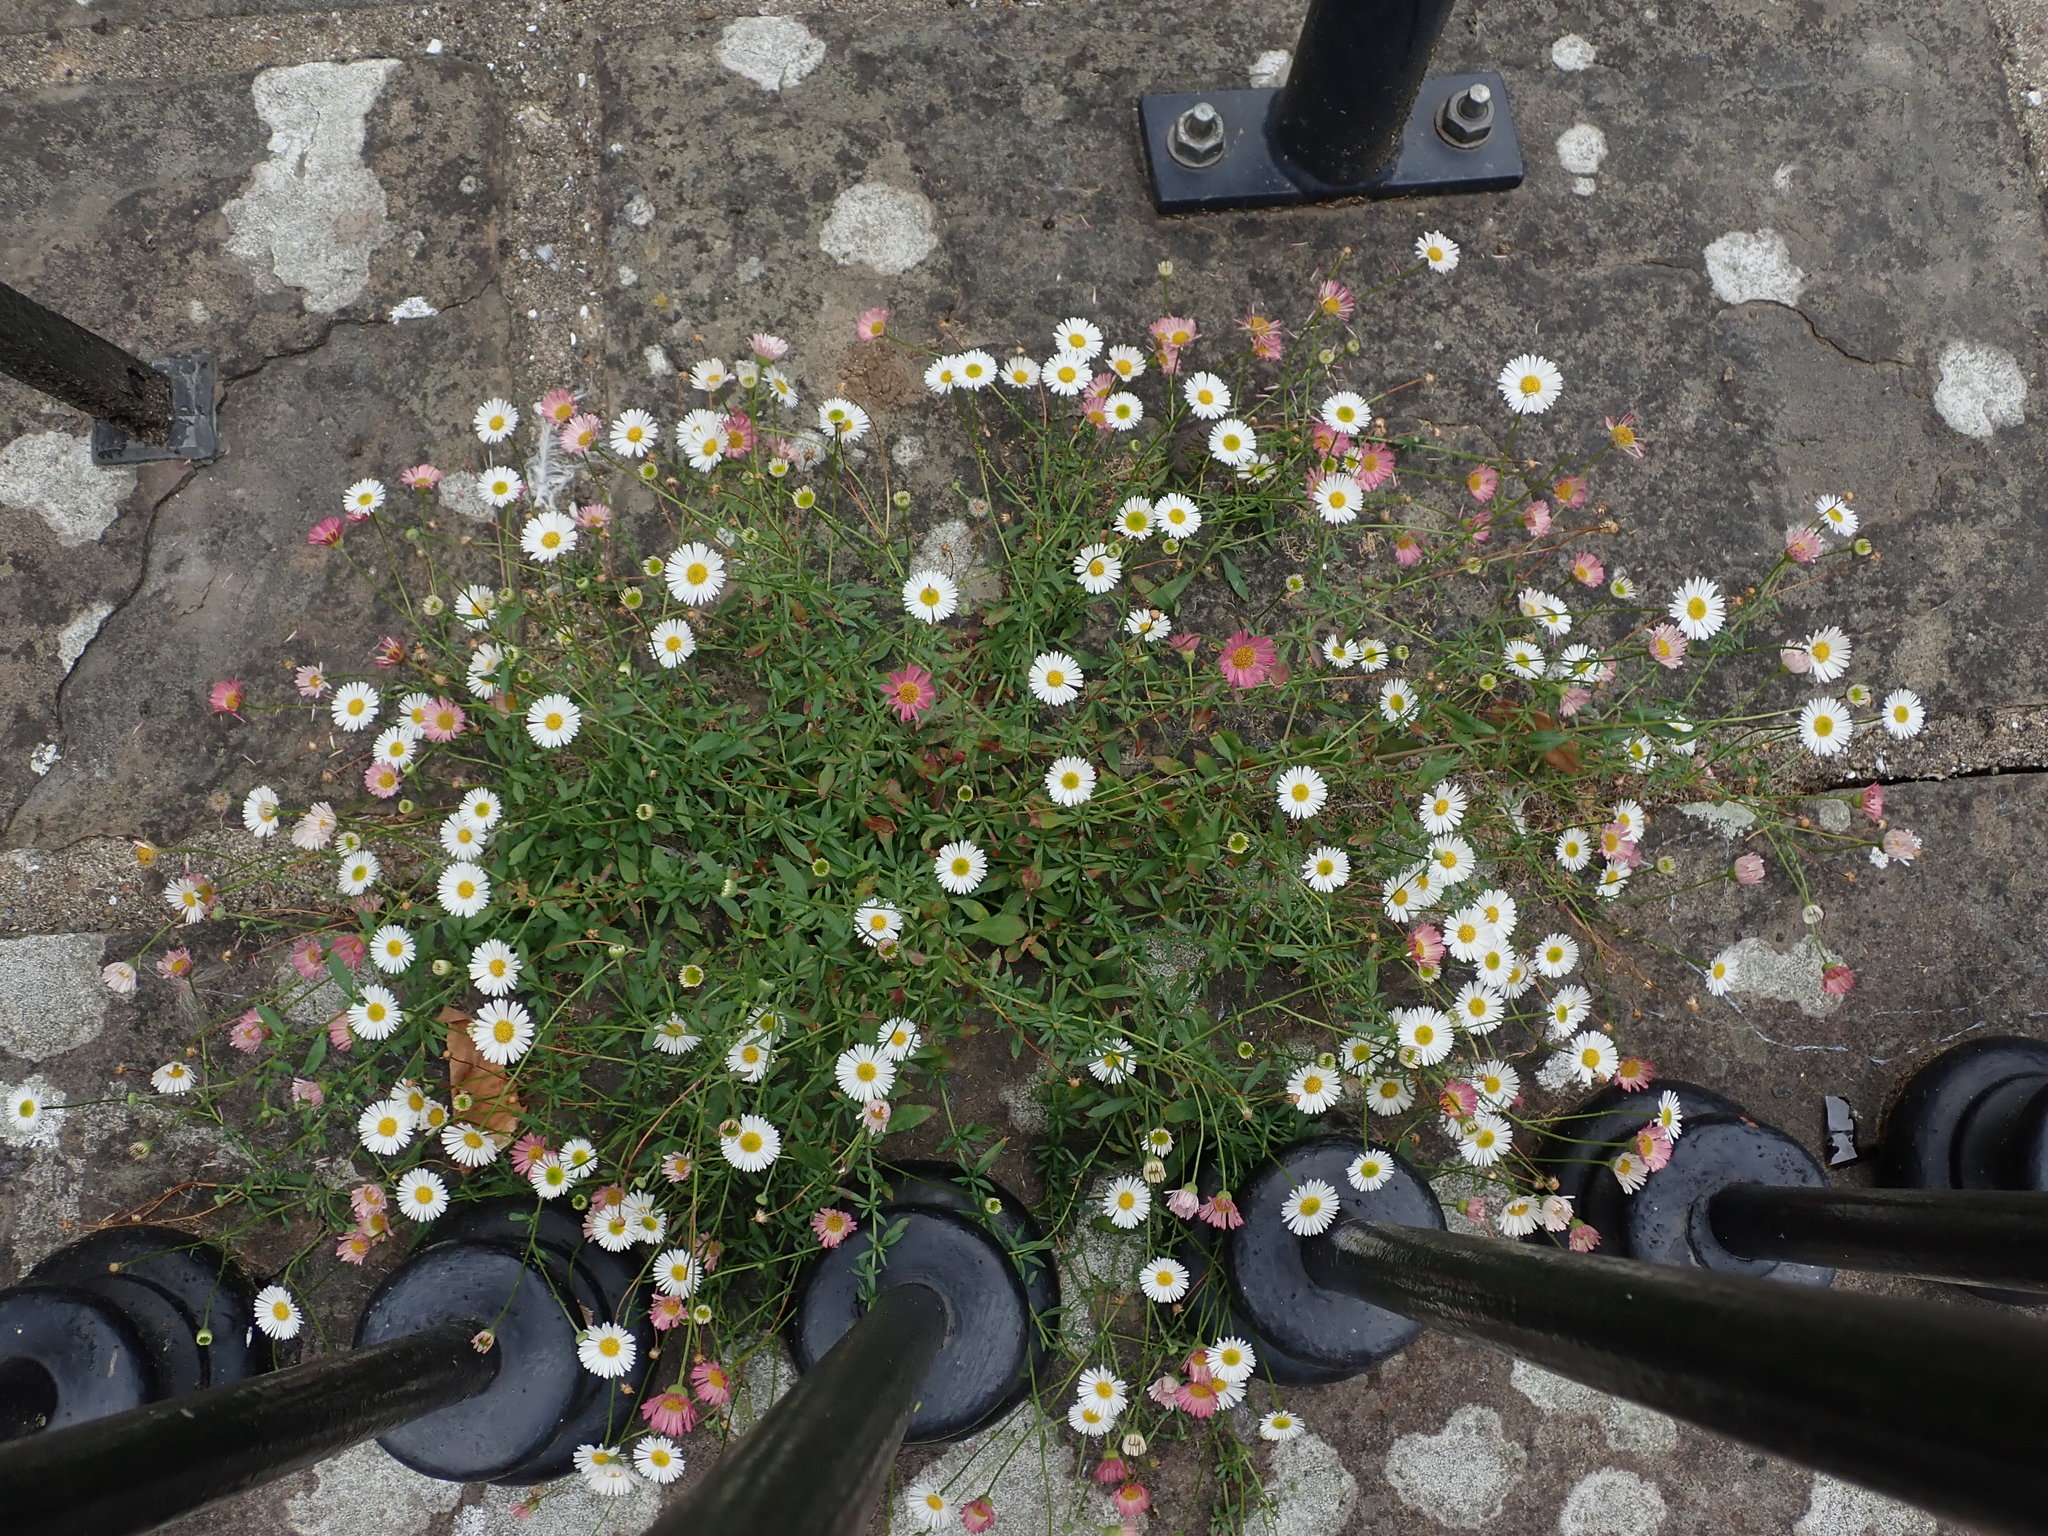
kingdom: Plantae
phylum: Tracheophyta
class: Magnoliopsida
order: Asterales
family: Asteraceae
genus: Erigeron
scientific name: Erigeron karvinskianus
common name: Mexican fleabane
